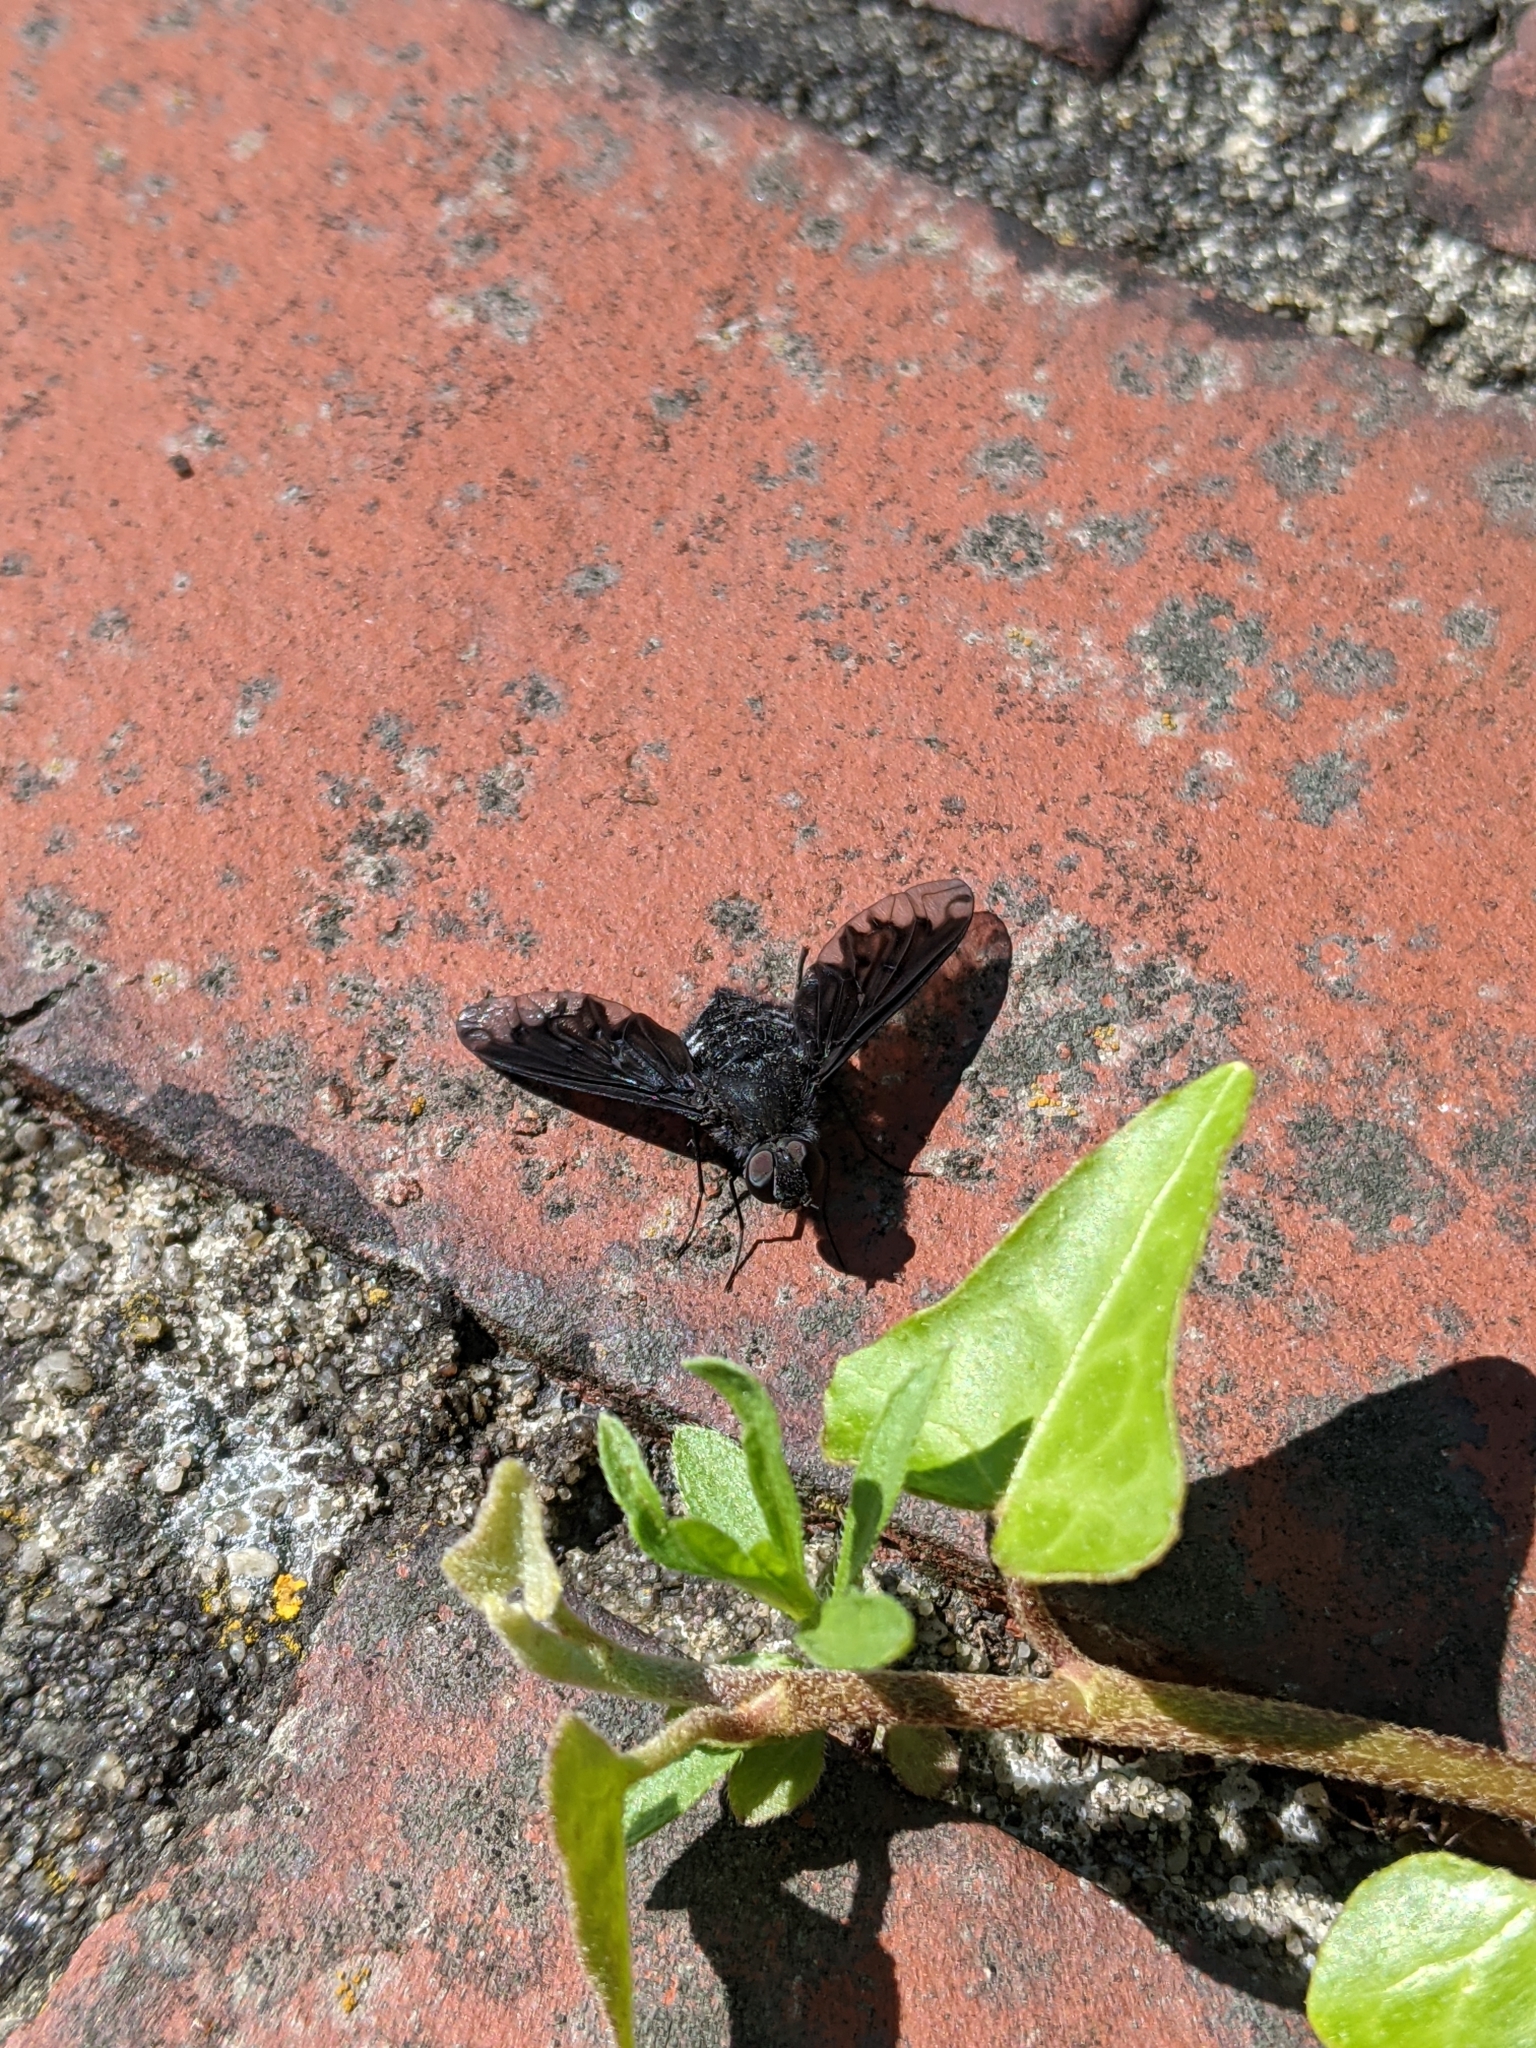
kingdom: Animalia
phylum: Arthropoda
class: Insecta
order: Diptera
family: Bombyliidae
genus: Anthrax
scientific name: Anthrax anthrax
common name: Anthracite bee-fly
